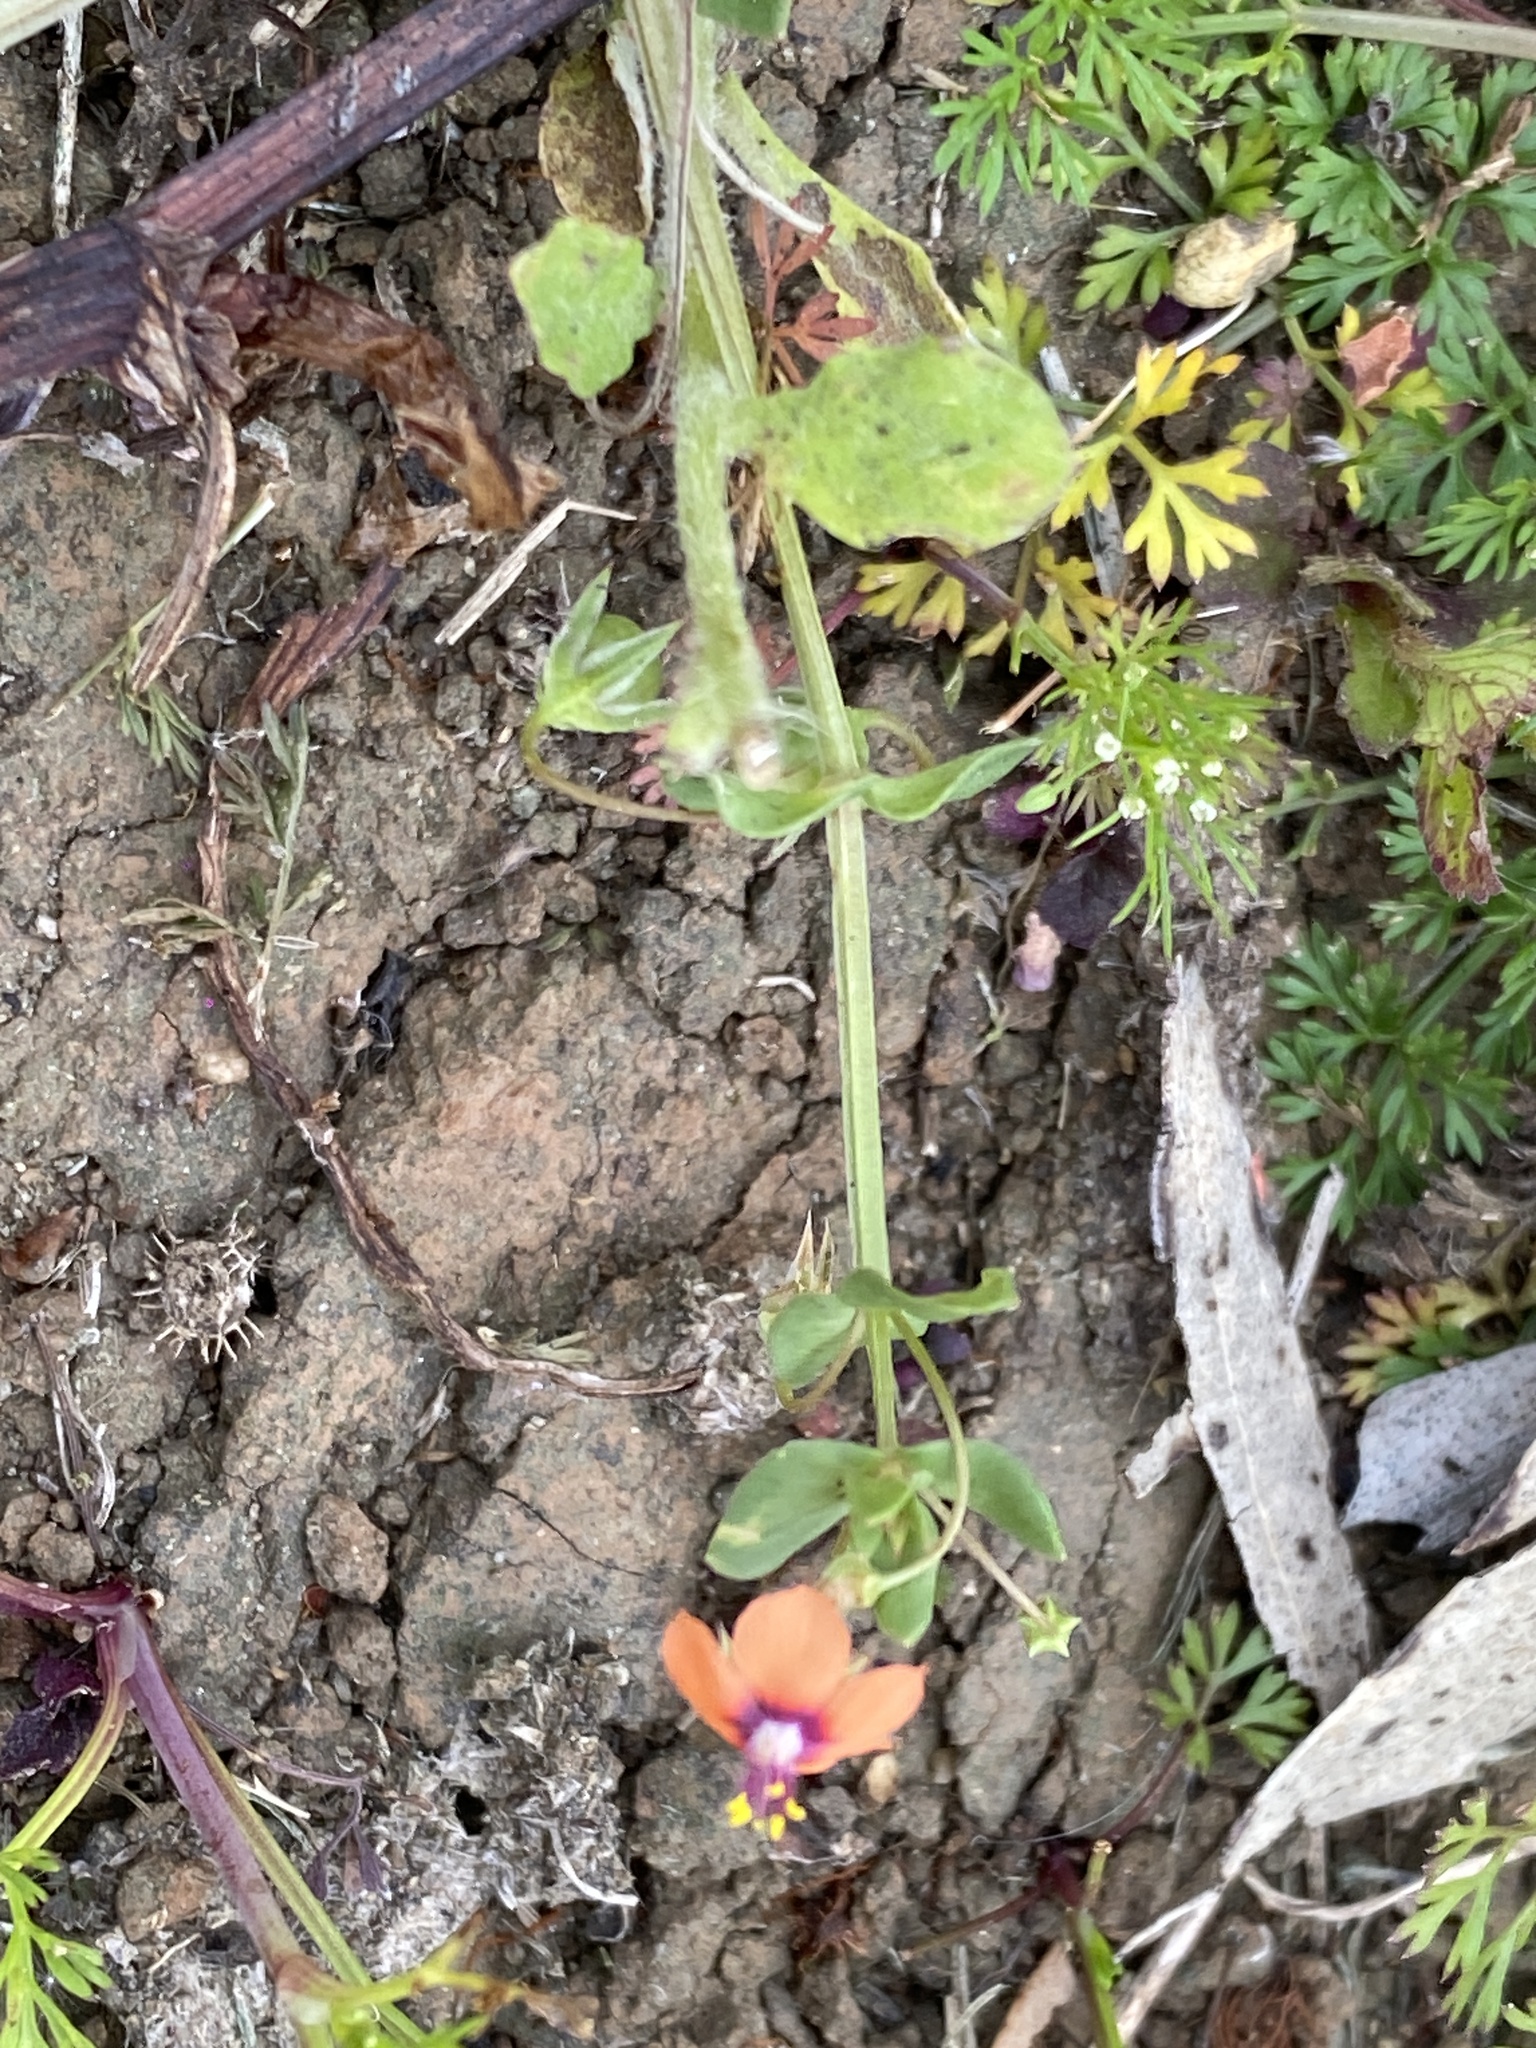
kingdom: Plantae
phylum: Tracheophyta
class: Magnoliopsida
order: Ericales
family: Primulaceae
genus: Lysimachia
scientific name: Lysimachia arvensis
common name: Scarlet pimpernel
